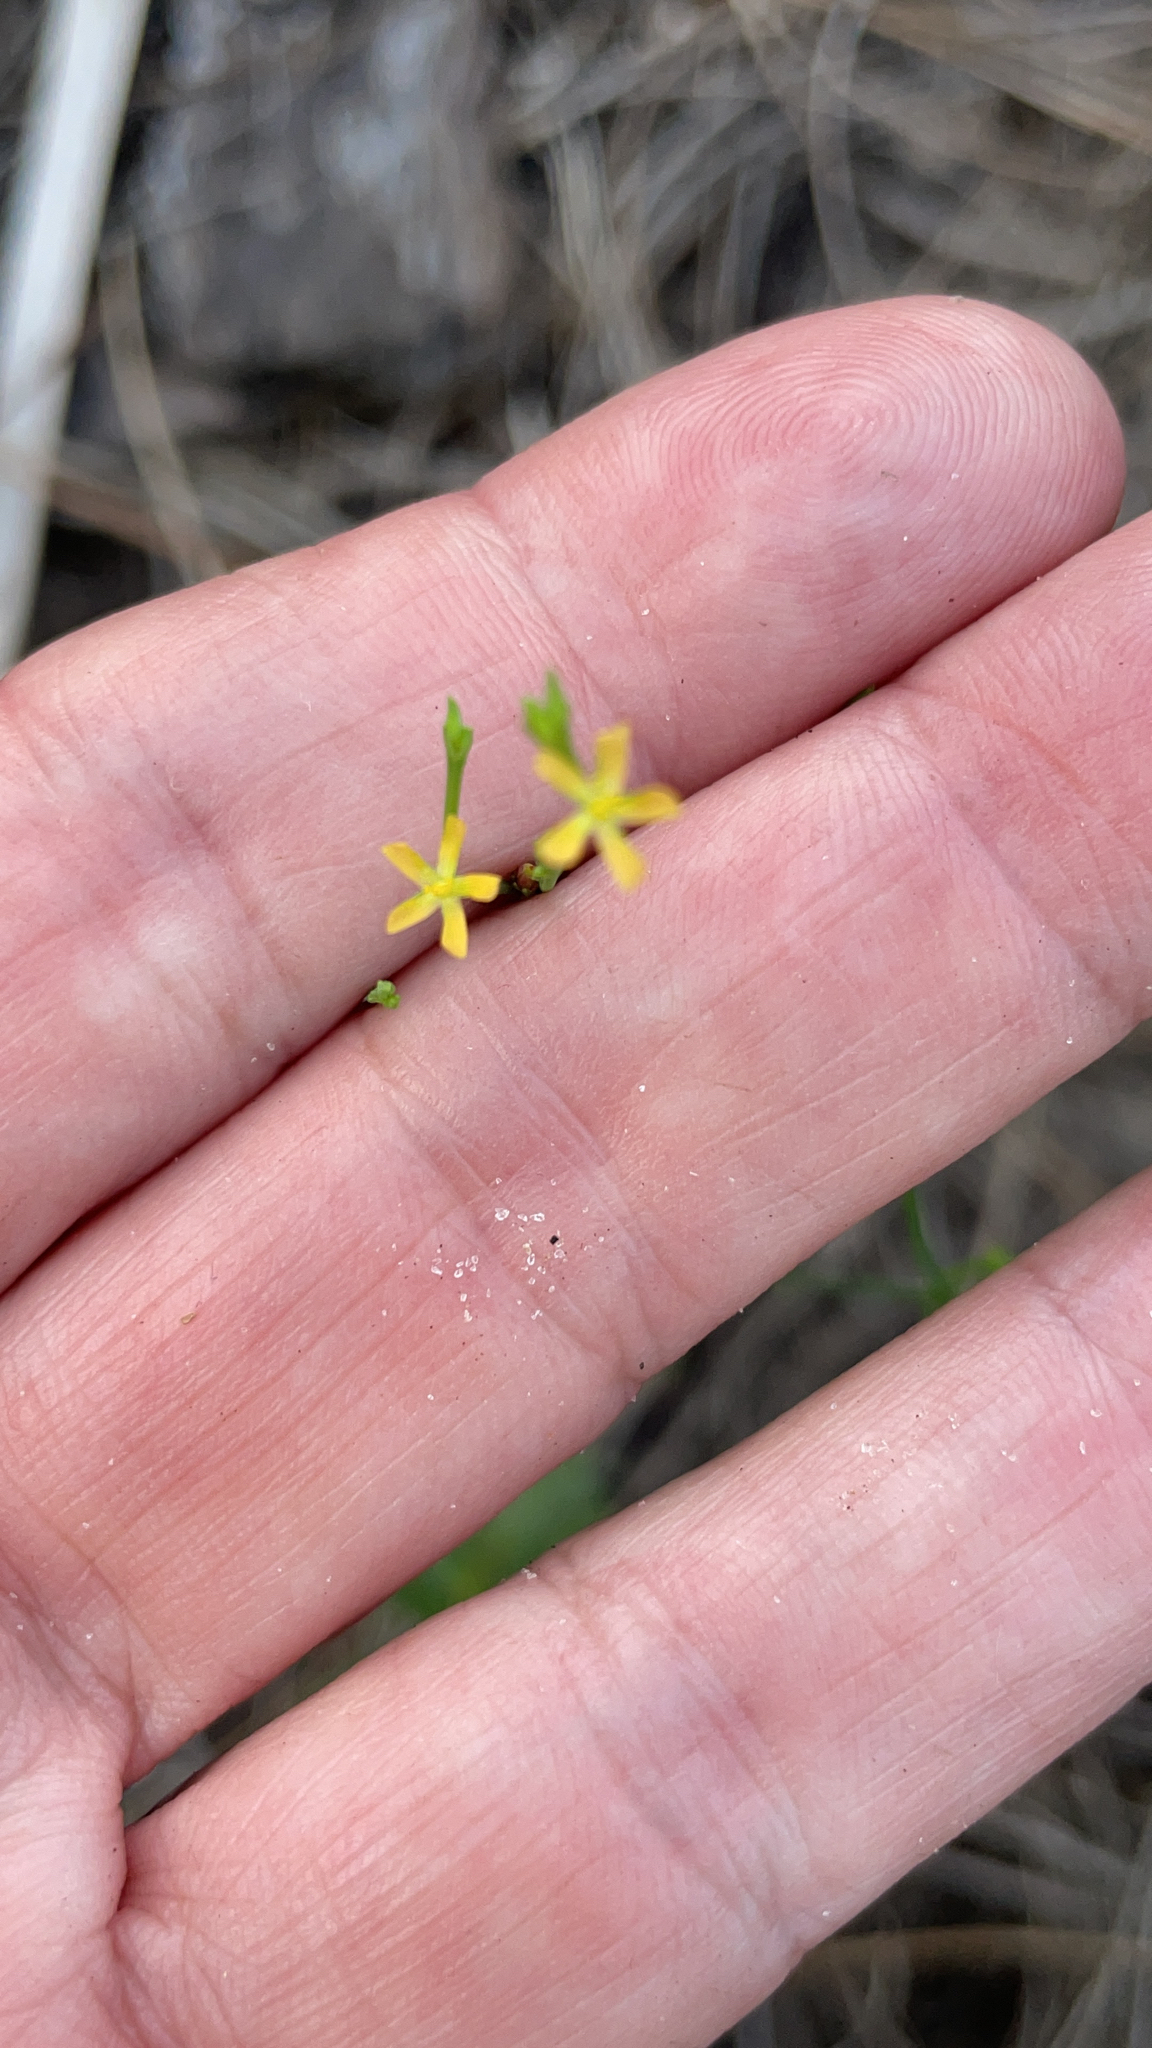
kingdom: Plantae
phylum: Tracheophyta
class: Magnoliopsida
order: Malpighiales
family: Hypericaceae
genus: Hypericum
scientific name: Hypericum gentianoides
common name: Gentian-leaved st. john's-wort
